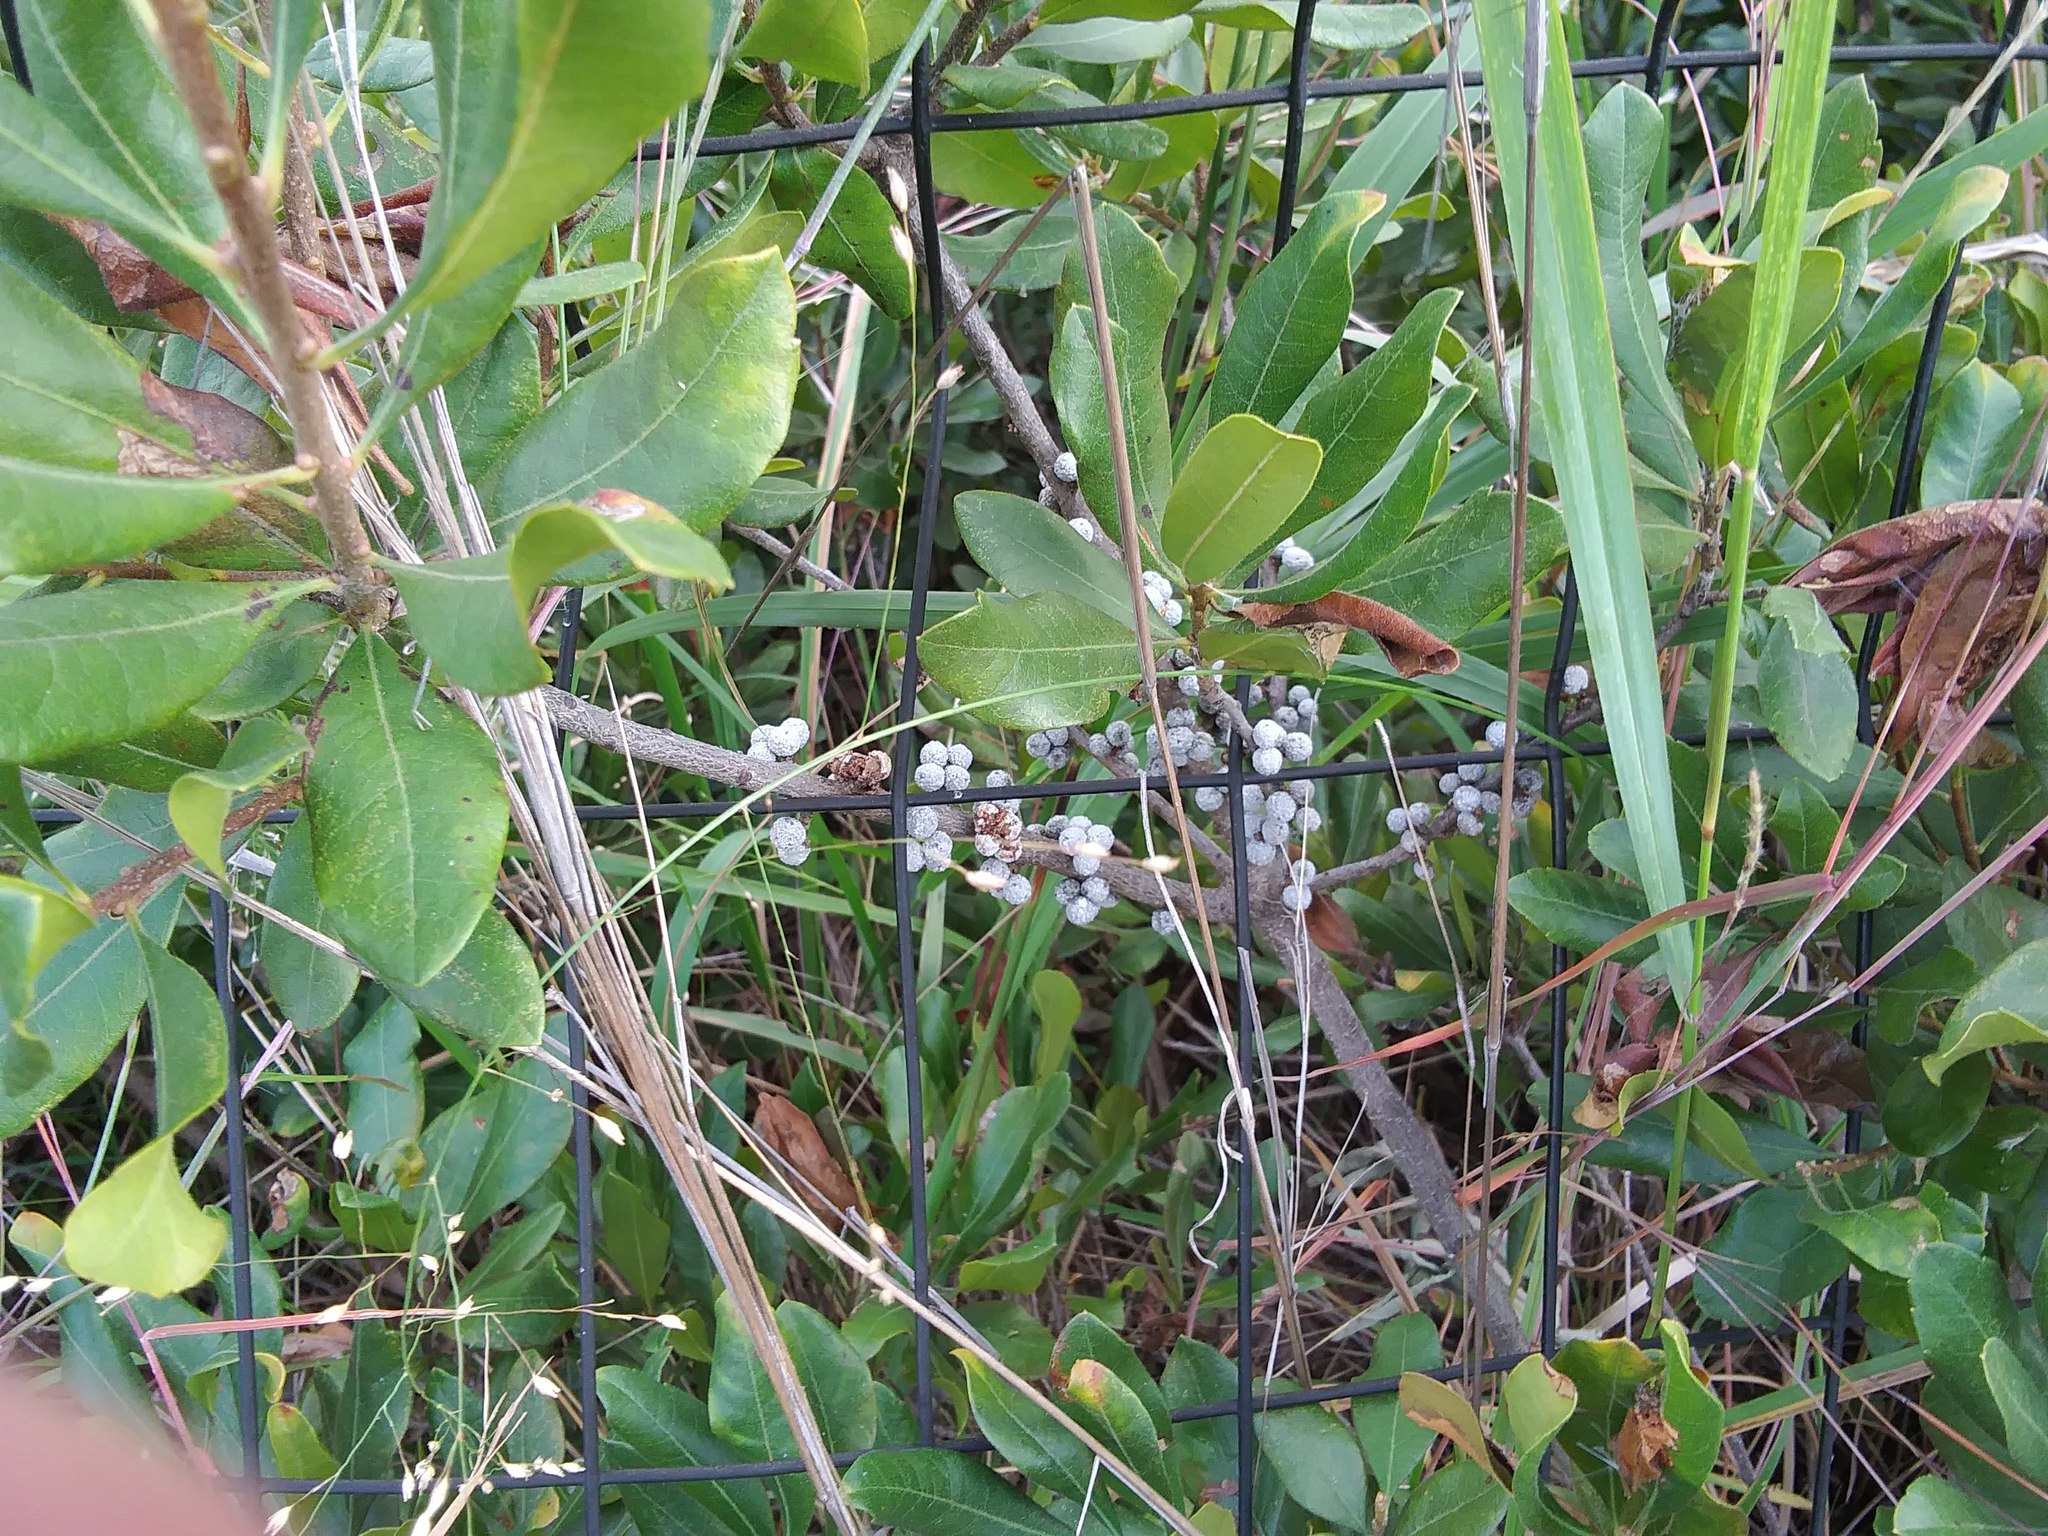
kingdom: Plantae
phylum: Tracheophyta
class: Magnoliopsida
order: Fagales
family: Myricaceae
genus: Morella
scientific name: Morella pensylvanica
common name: Northern bayberry
